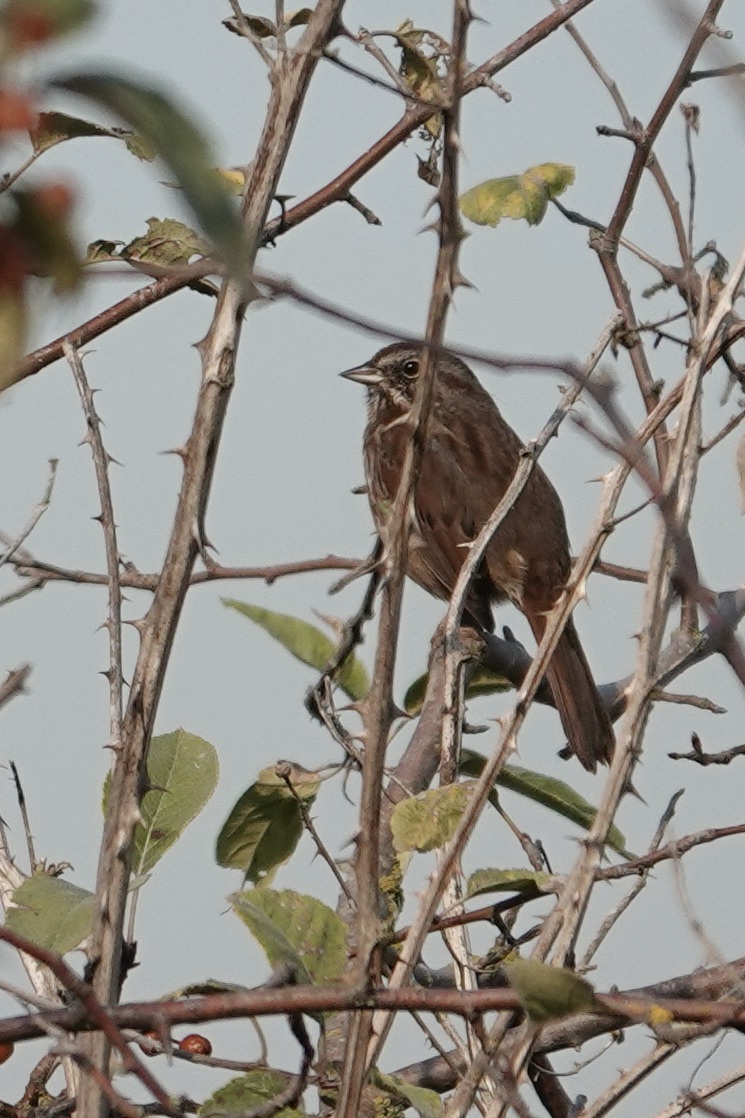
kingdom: Animalia
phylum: Chordata
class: Aves
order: Passeriformes
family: Passerellidae
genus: Melospiza
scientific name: Melospiza melodia
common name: Song sparrow
